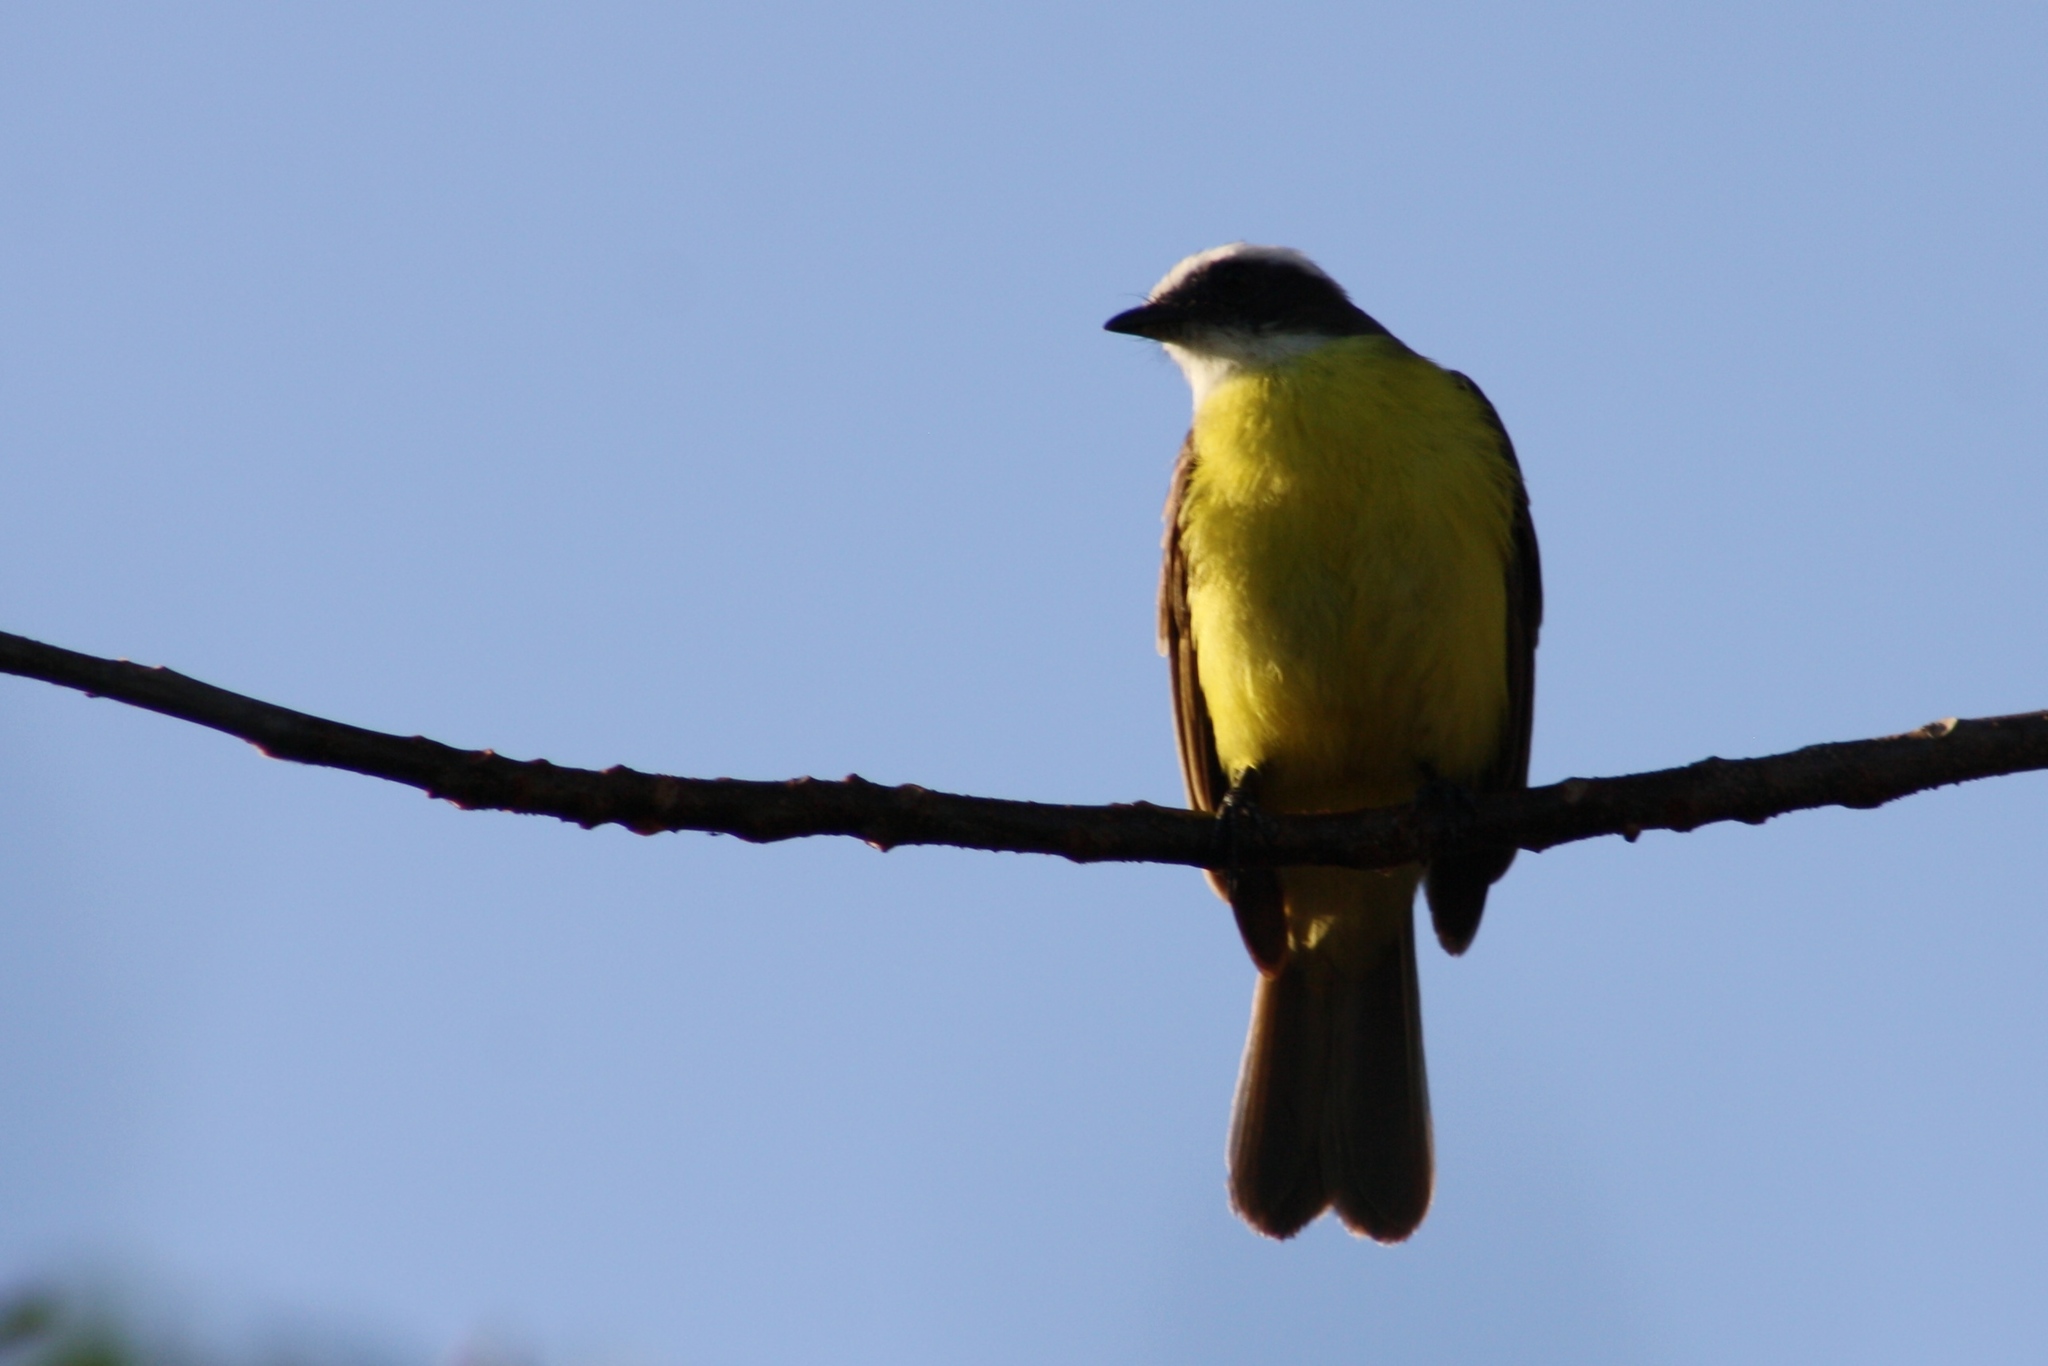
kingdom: Animalia
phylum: Chordata
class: Aves
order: Passeriformes
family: Tyrannidae
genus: Myiozetetes
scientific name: Myiozetetes similis
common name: Social flycatcher
